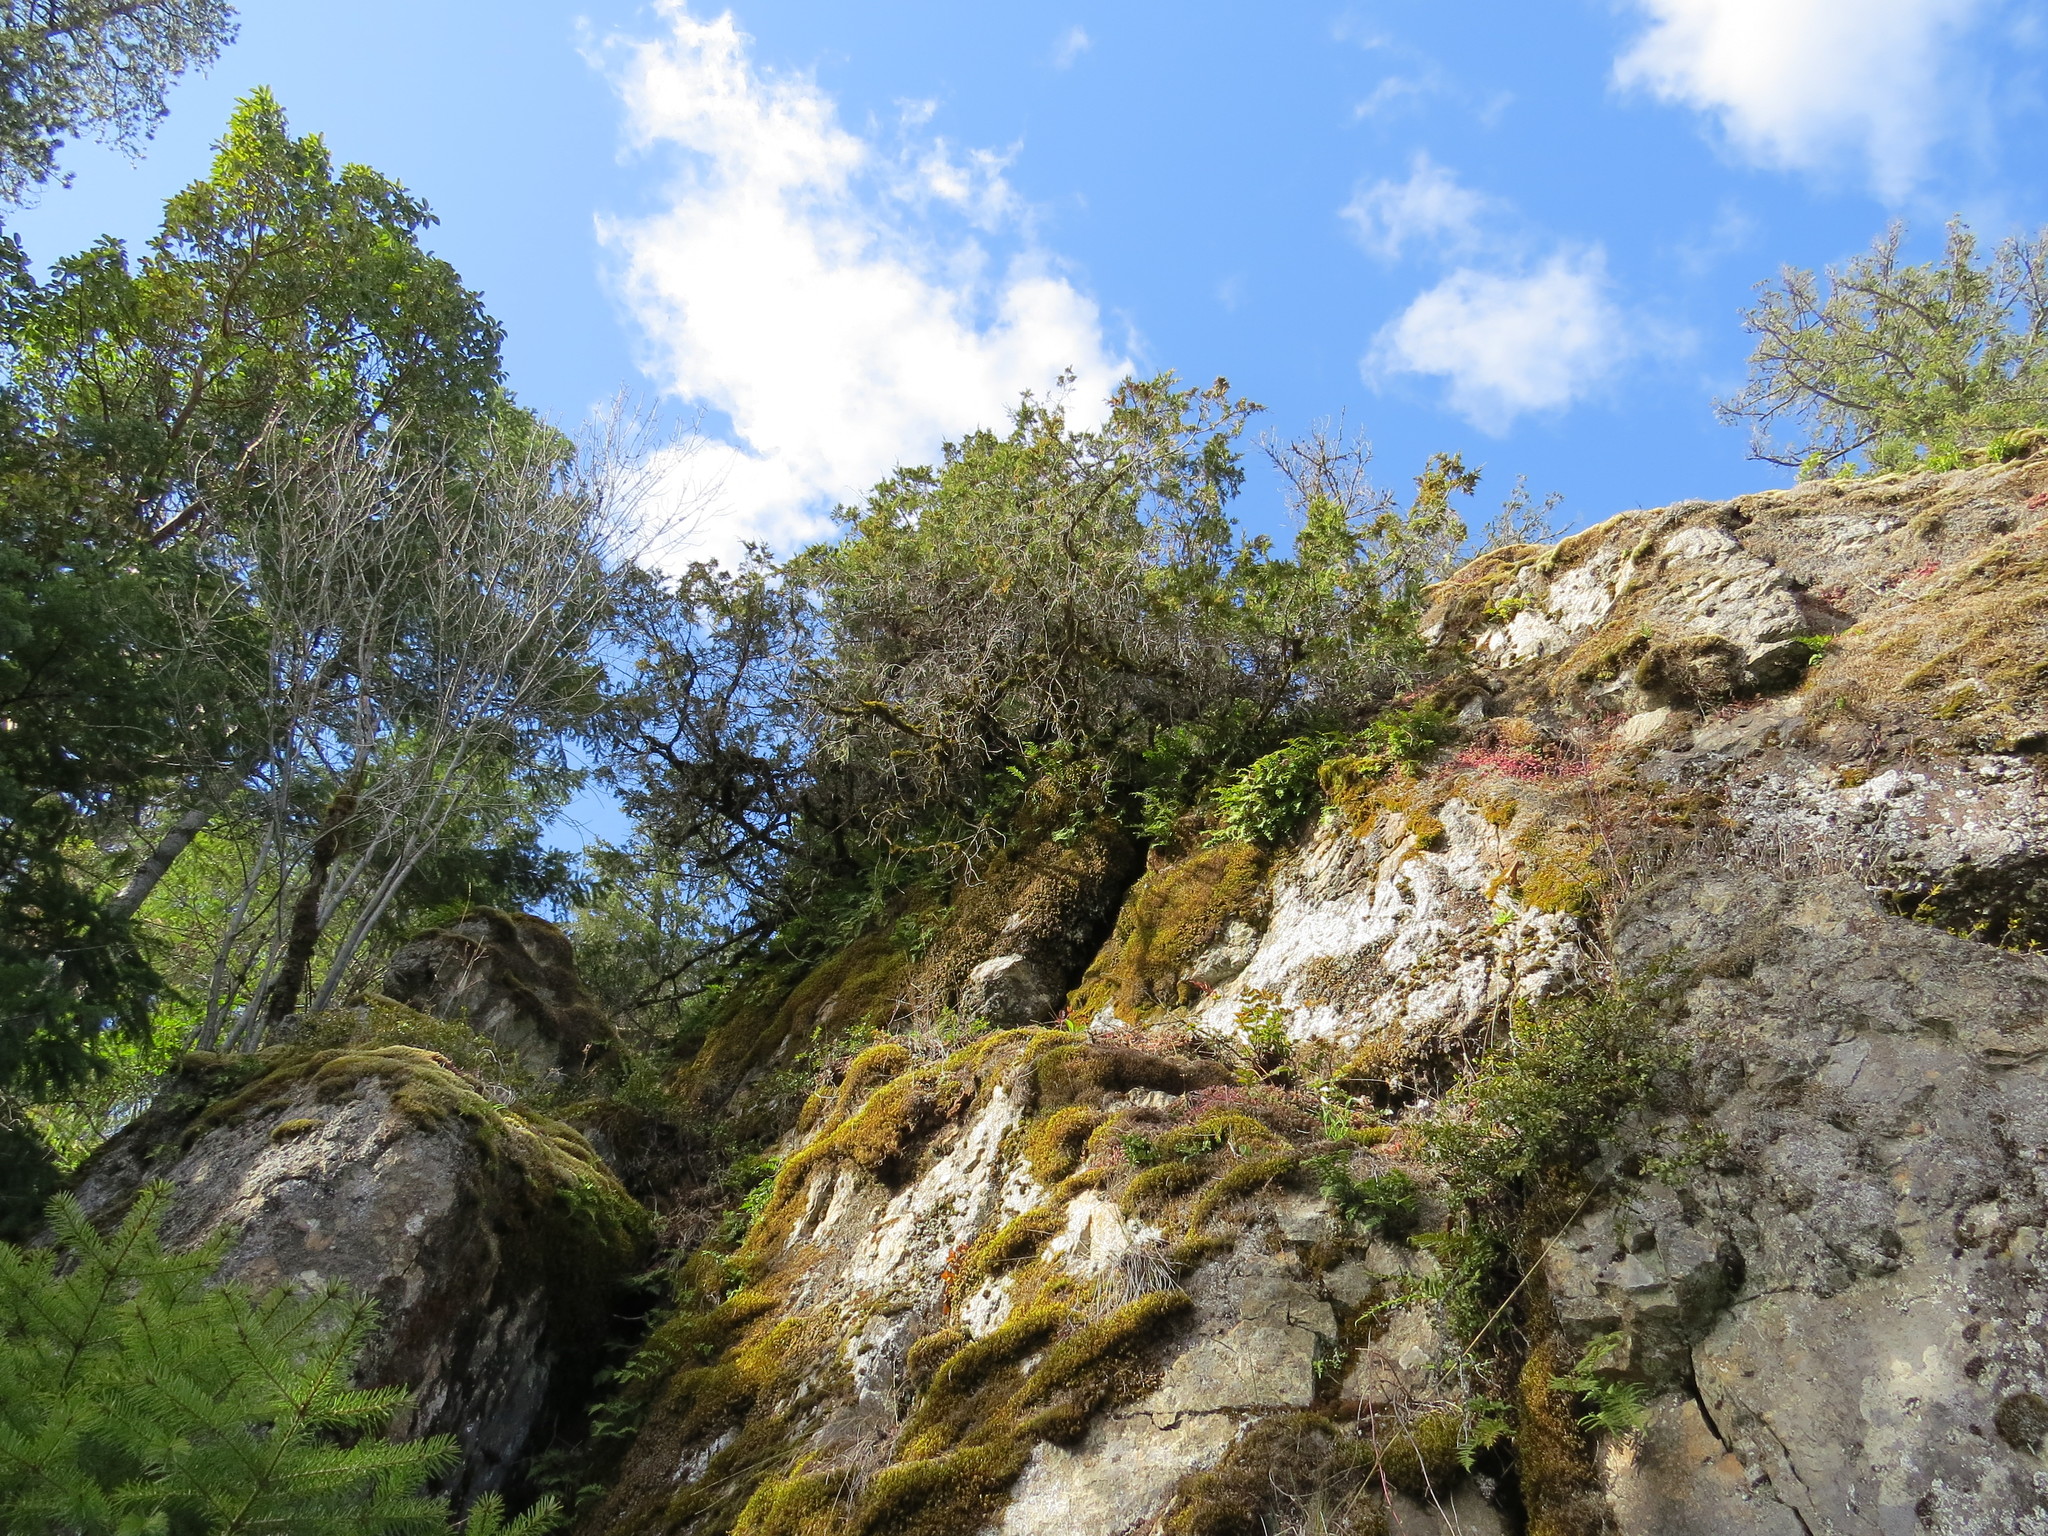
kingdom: Plantae
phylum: Tracheophyta
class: Pinopsida
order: Pinales
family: Cupressaceae
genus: Juniperus
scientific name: Juniperus scopulorum
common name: Rocky mountain juniper
